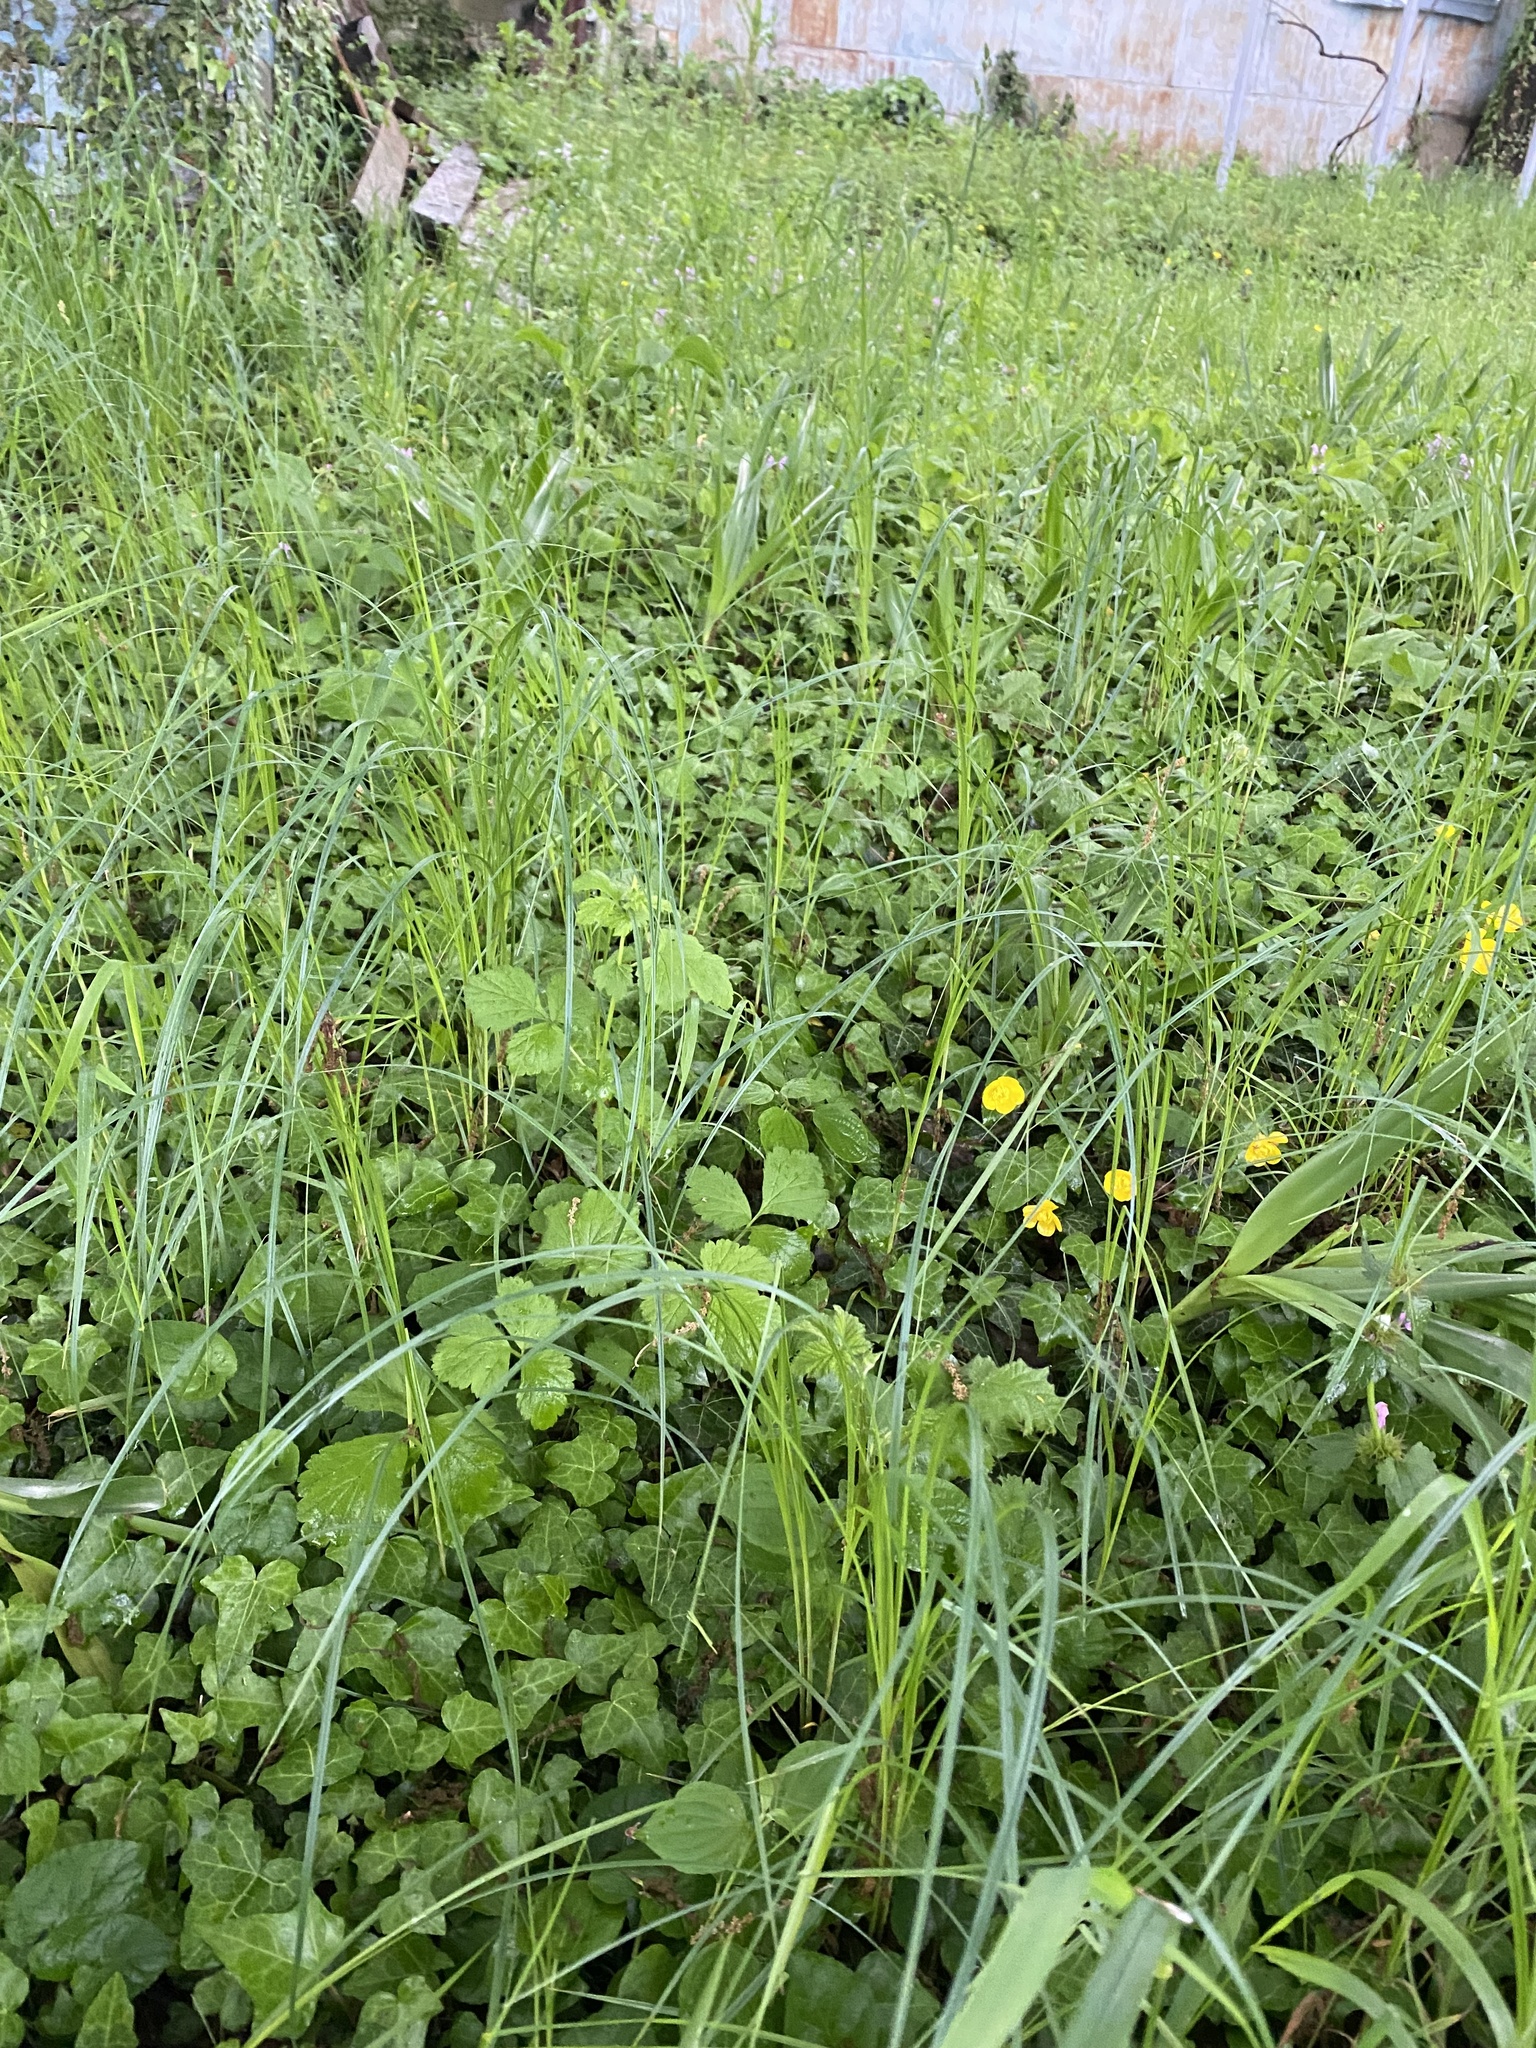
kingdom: Plantae
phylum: Tracheophyta
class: Liliopsida
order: Liliales
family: Colchicaceae
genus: Colchicum
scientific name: Colchicum umbrosum
